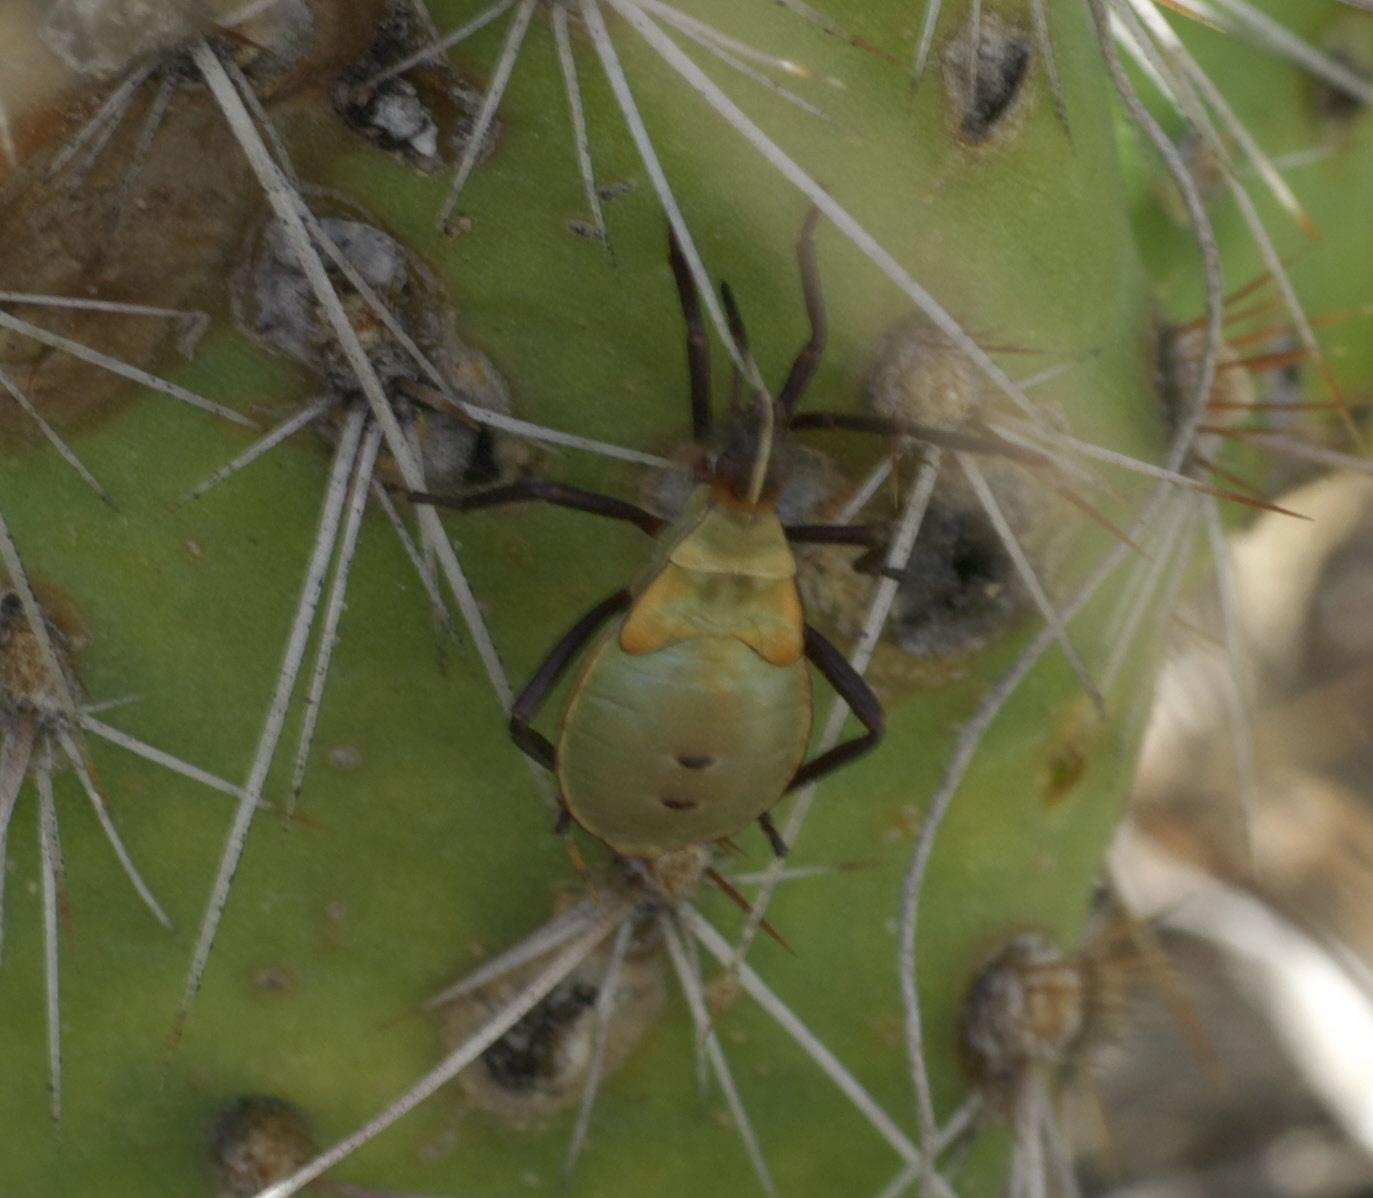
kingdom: Animalia
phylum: Arthropoda
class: Insecta
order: Hemiptera
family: Coreidae
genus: Chelinidea
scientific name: Chelinidea vittiger
